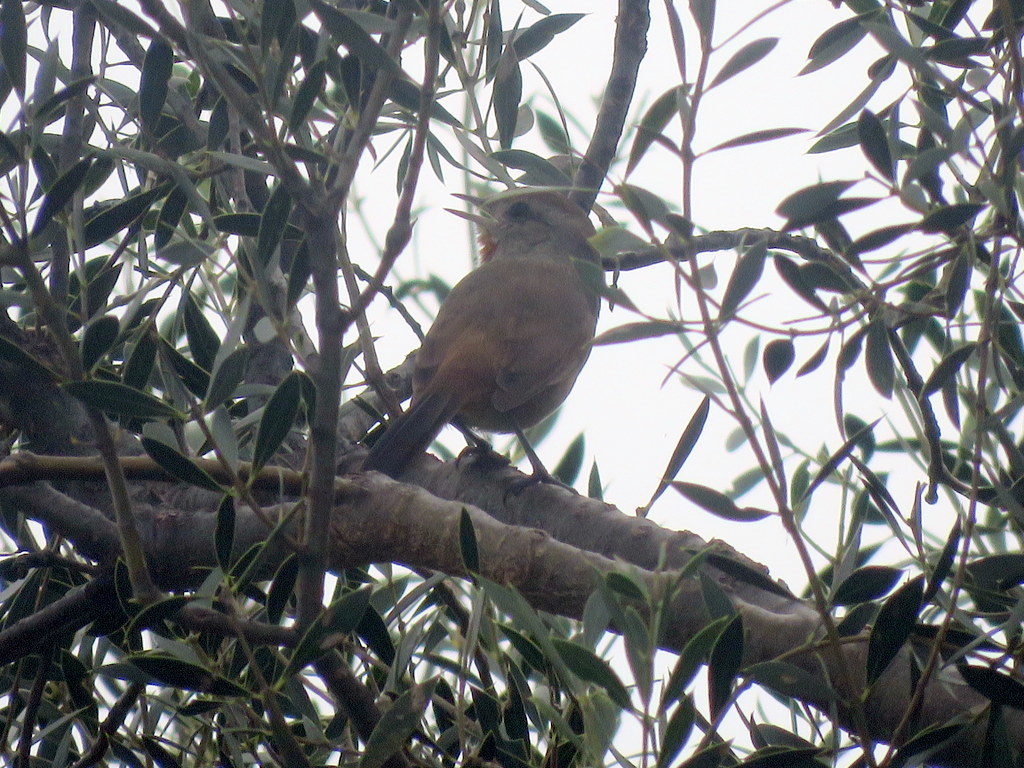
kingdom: Animalia
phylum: Chordata
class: Aves
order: Passeriformes
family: Furnariidae
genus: Asthenes
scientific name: Asthenes baeri
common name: Short-billed canastero
